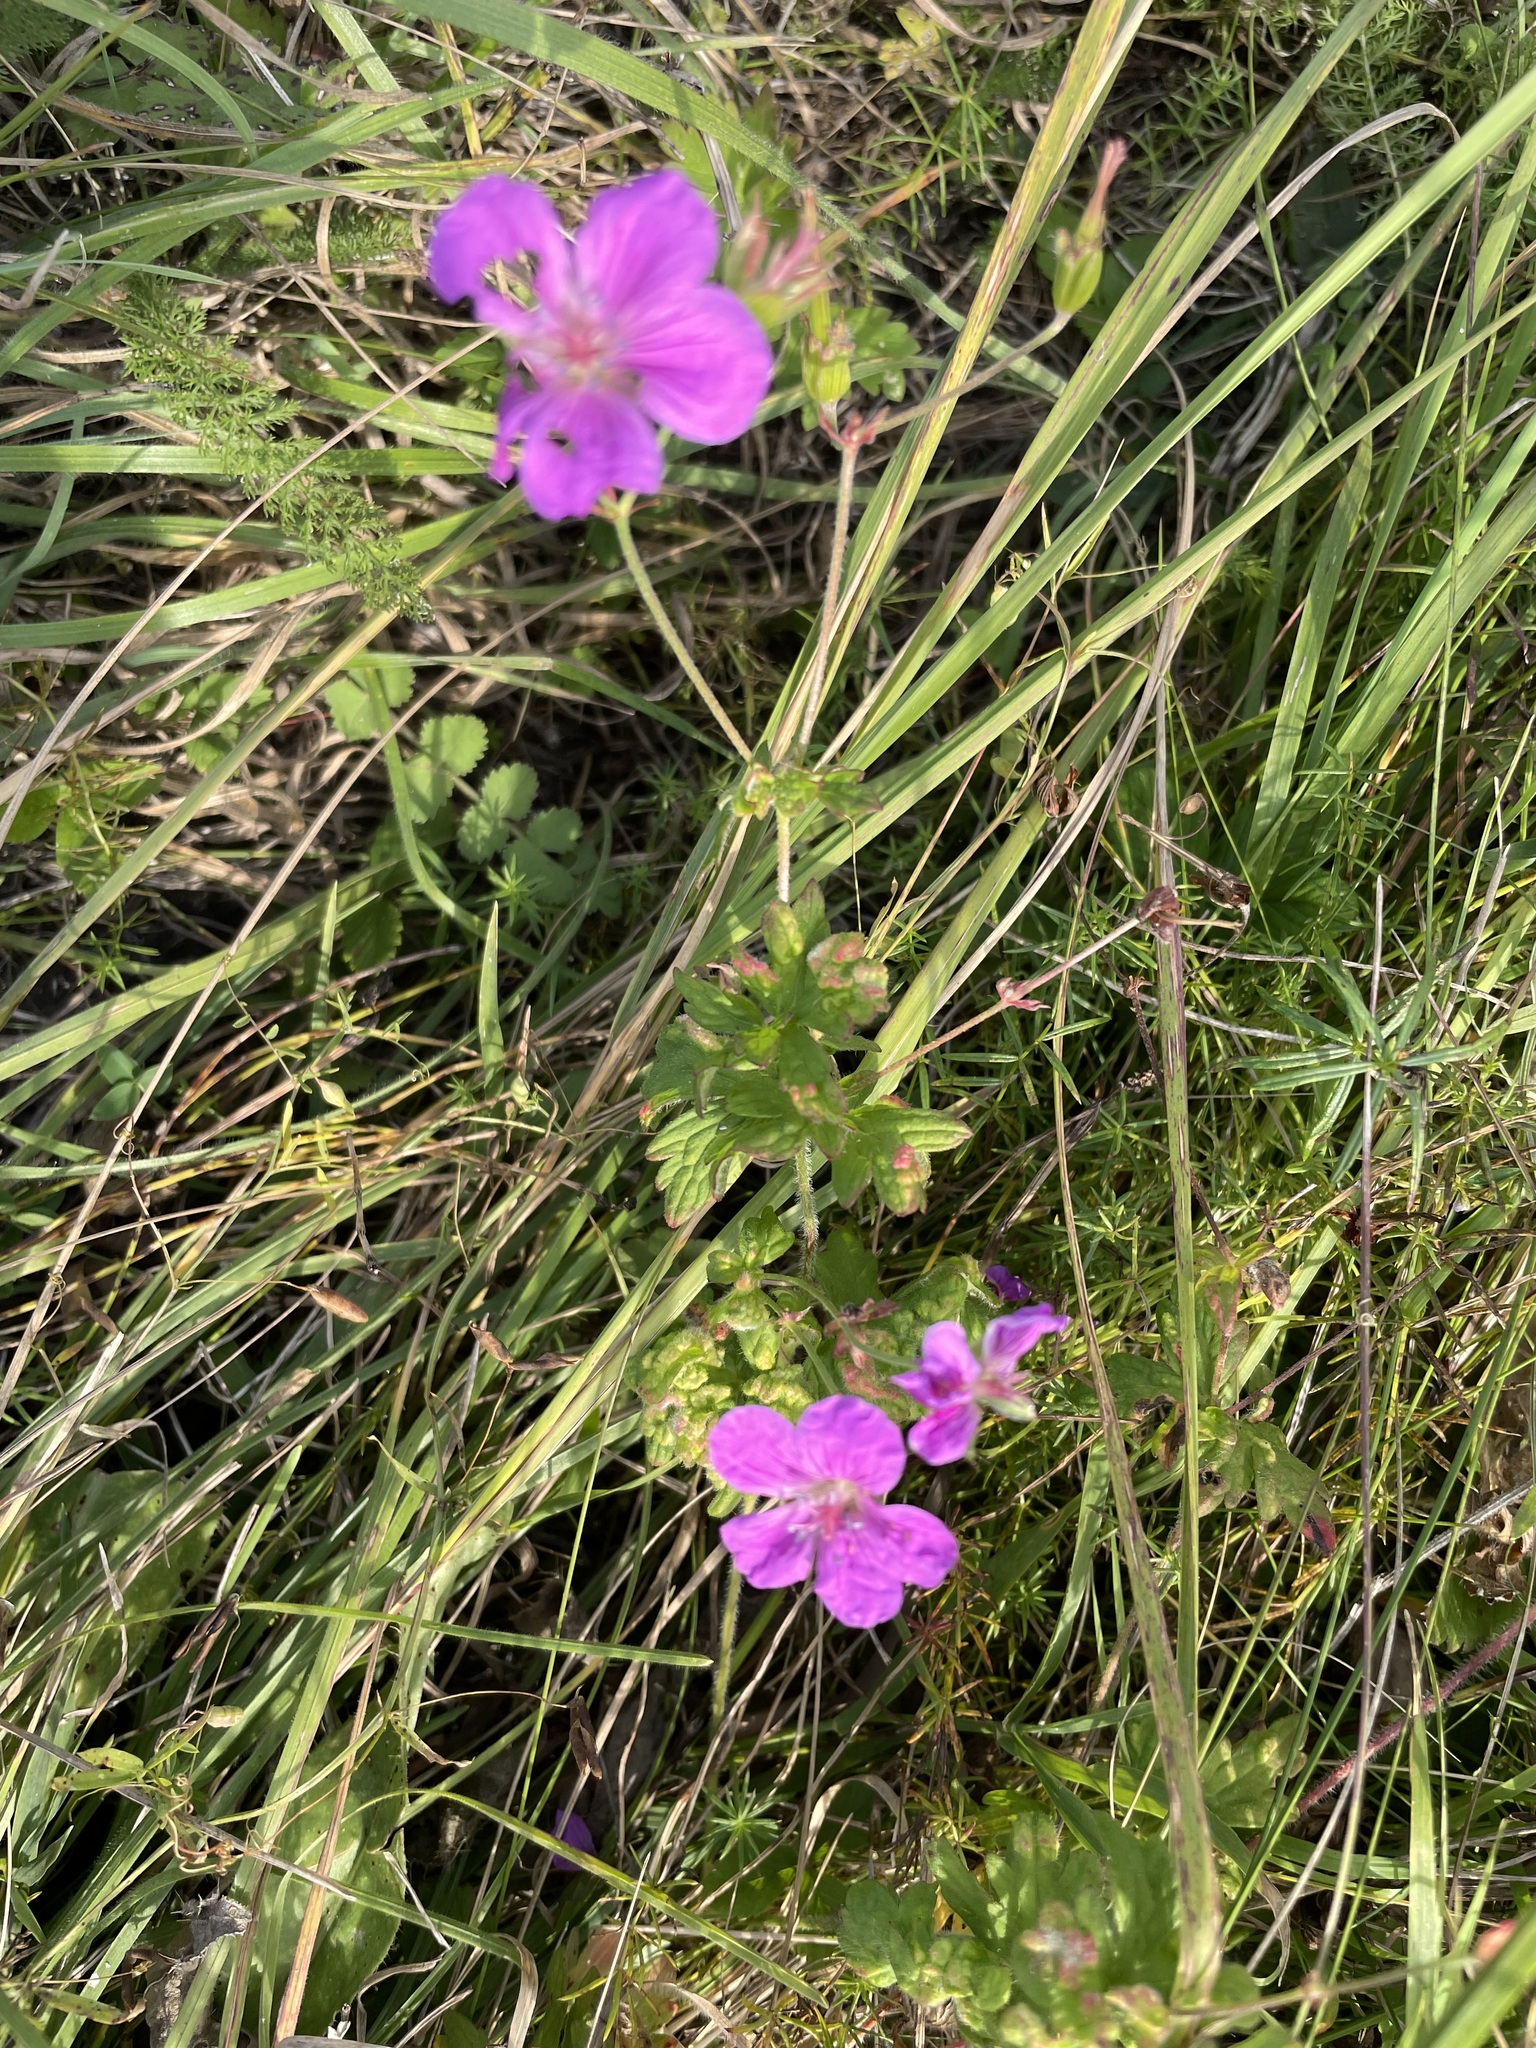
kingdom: Plantae
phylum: Tracheophyta
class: Magnoliopsida
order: Geraniales
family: Geraniaceae
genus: Geranium
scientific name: Geranium palustre
